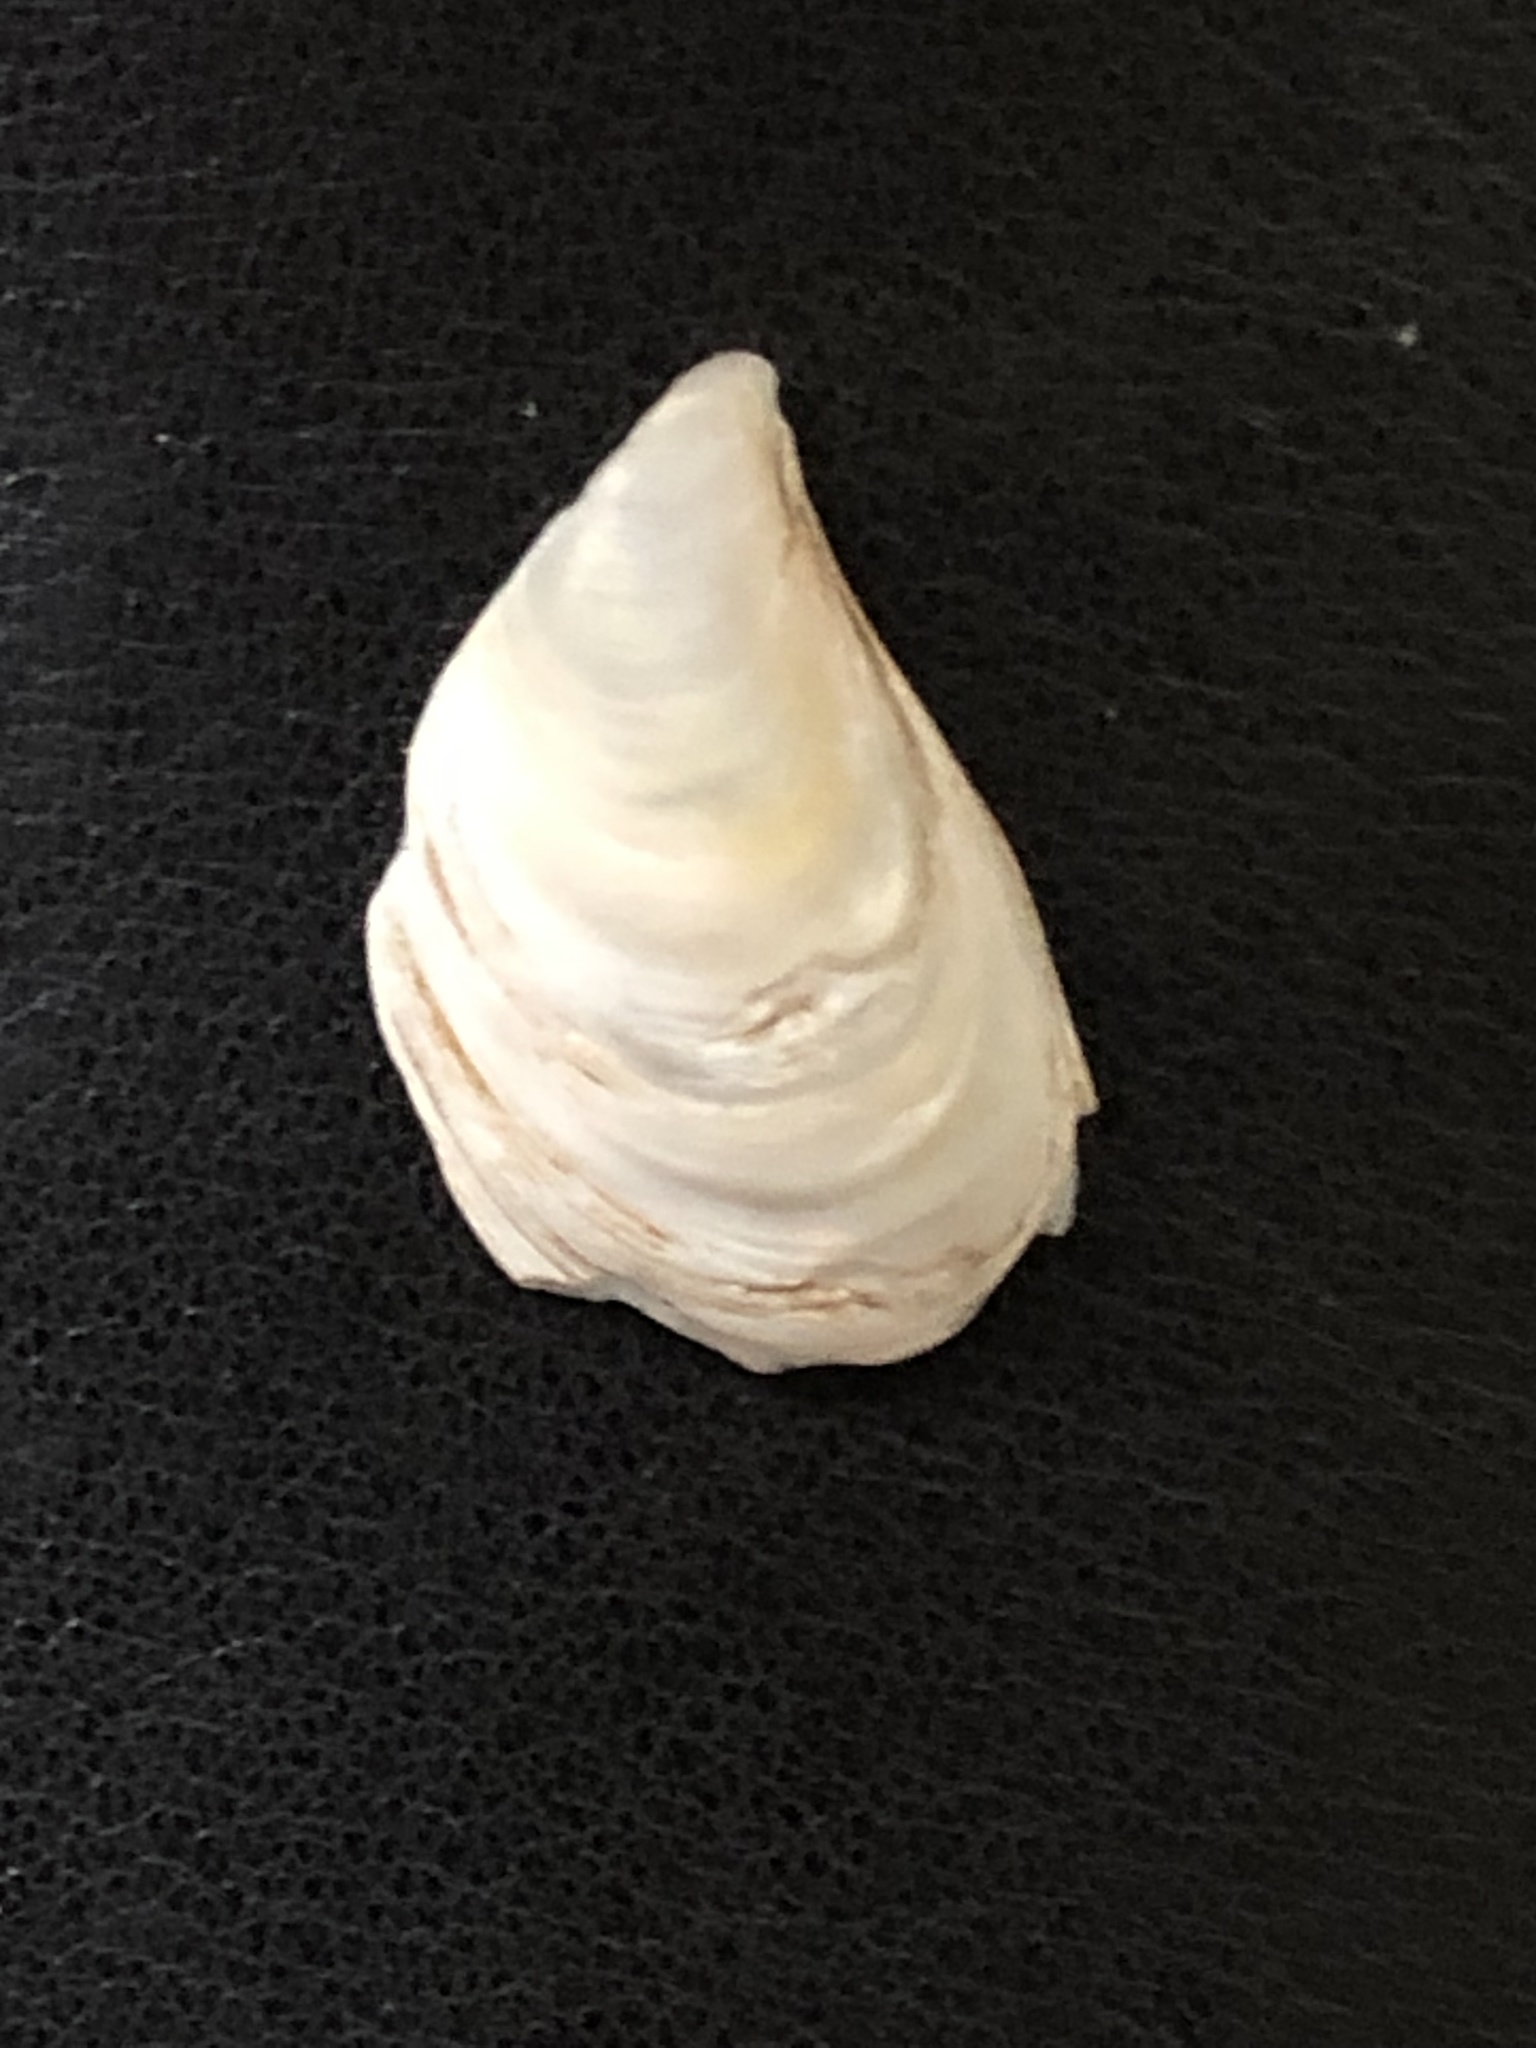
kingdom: Animalia
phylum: Mollusca
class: Bivalvia
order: Myida
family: Dreissenidae
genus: Dreissena
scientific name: Dreissena bugensis
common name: Quagga mussel
